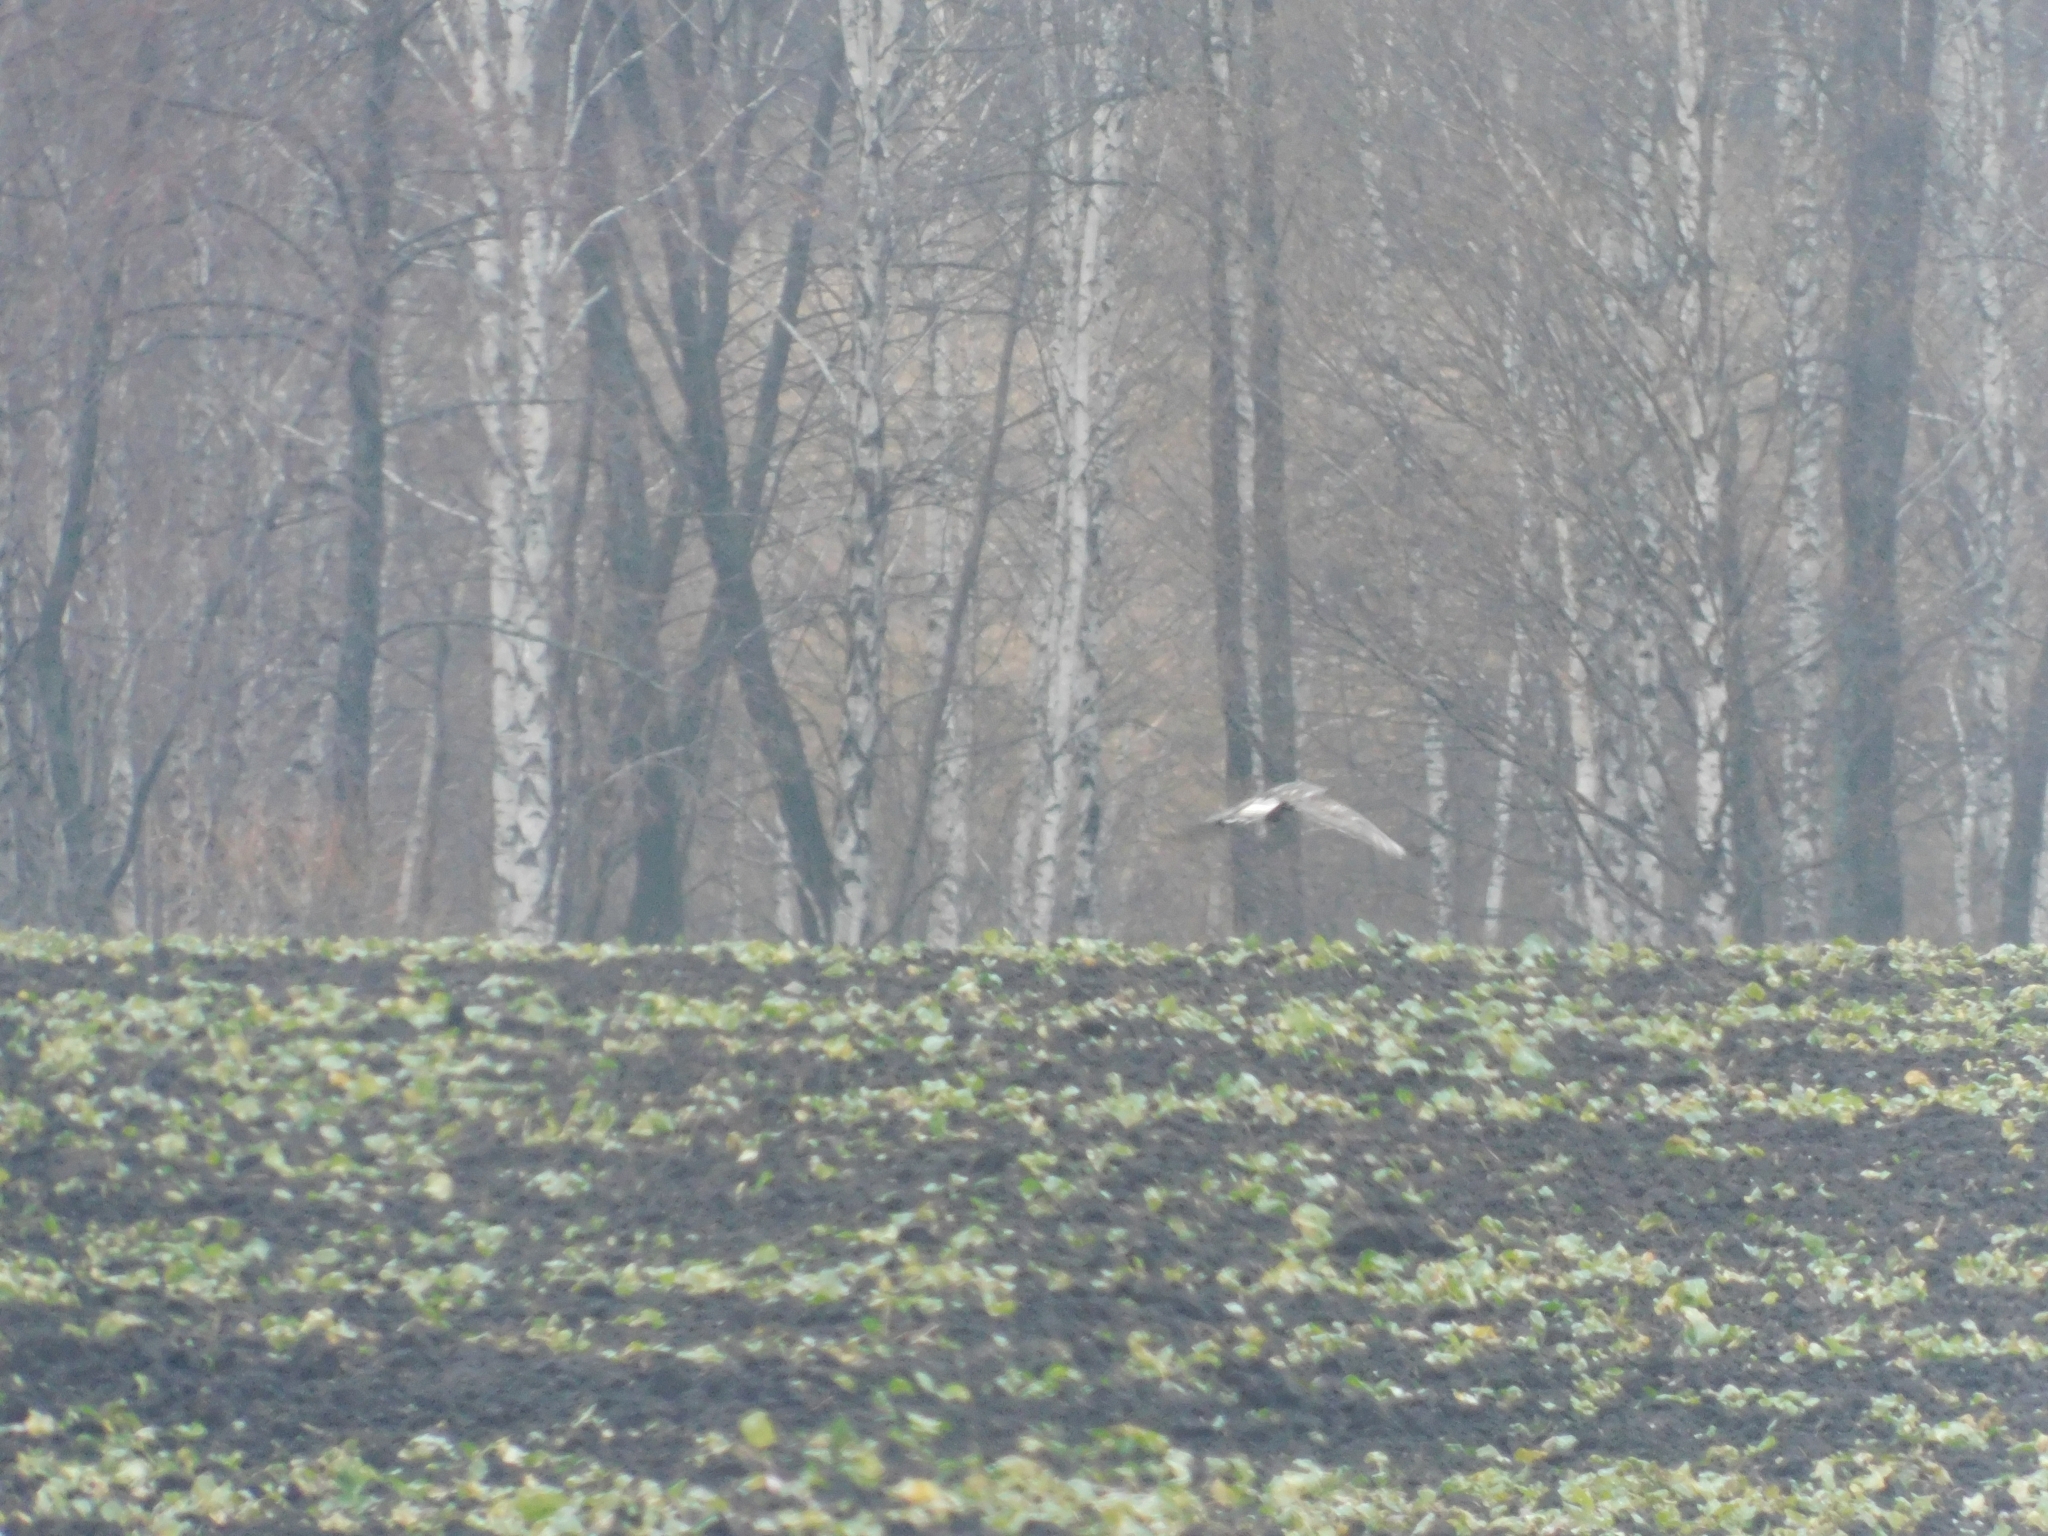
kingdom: Animalia
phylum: Chordata
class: Aves
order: Accipitriformes
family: Accipitridae
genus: Buteo
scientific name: Buteo lagopus
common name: Rough-legged buzzard
